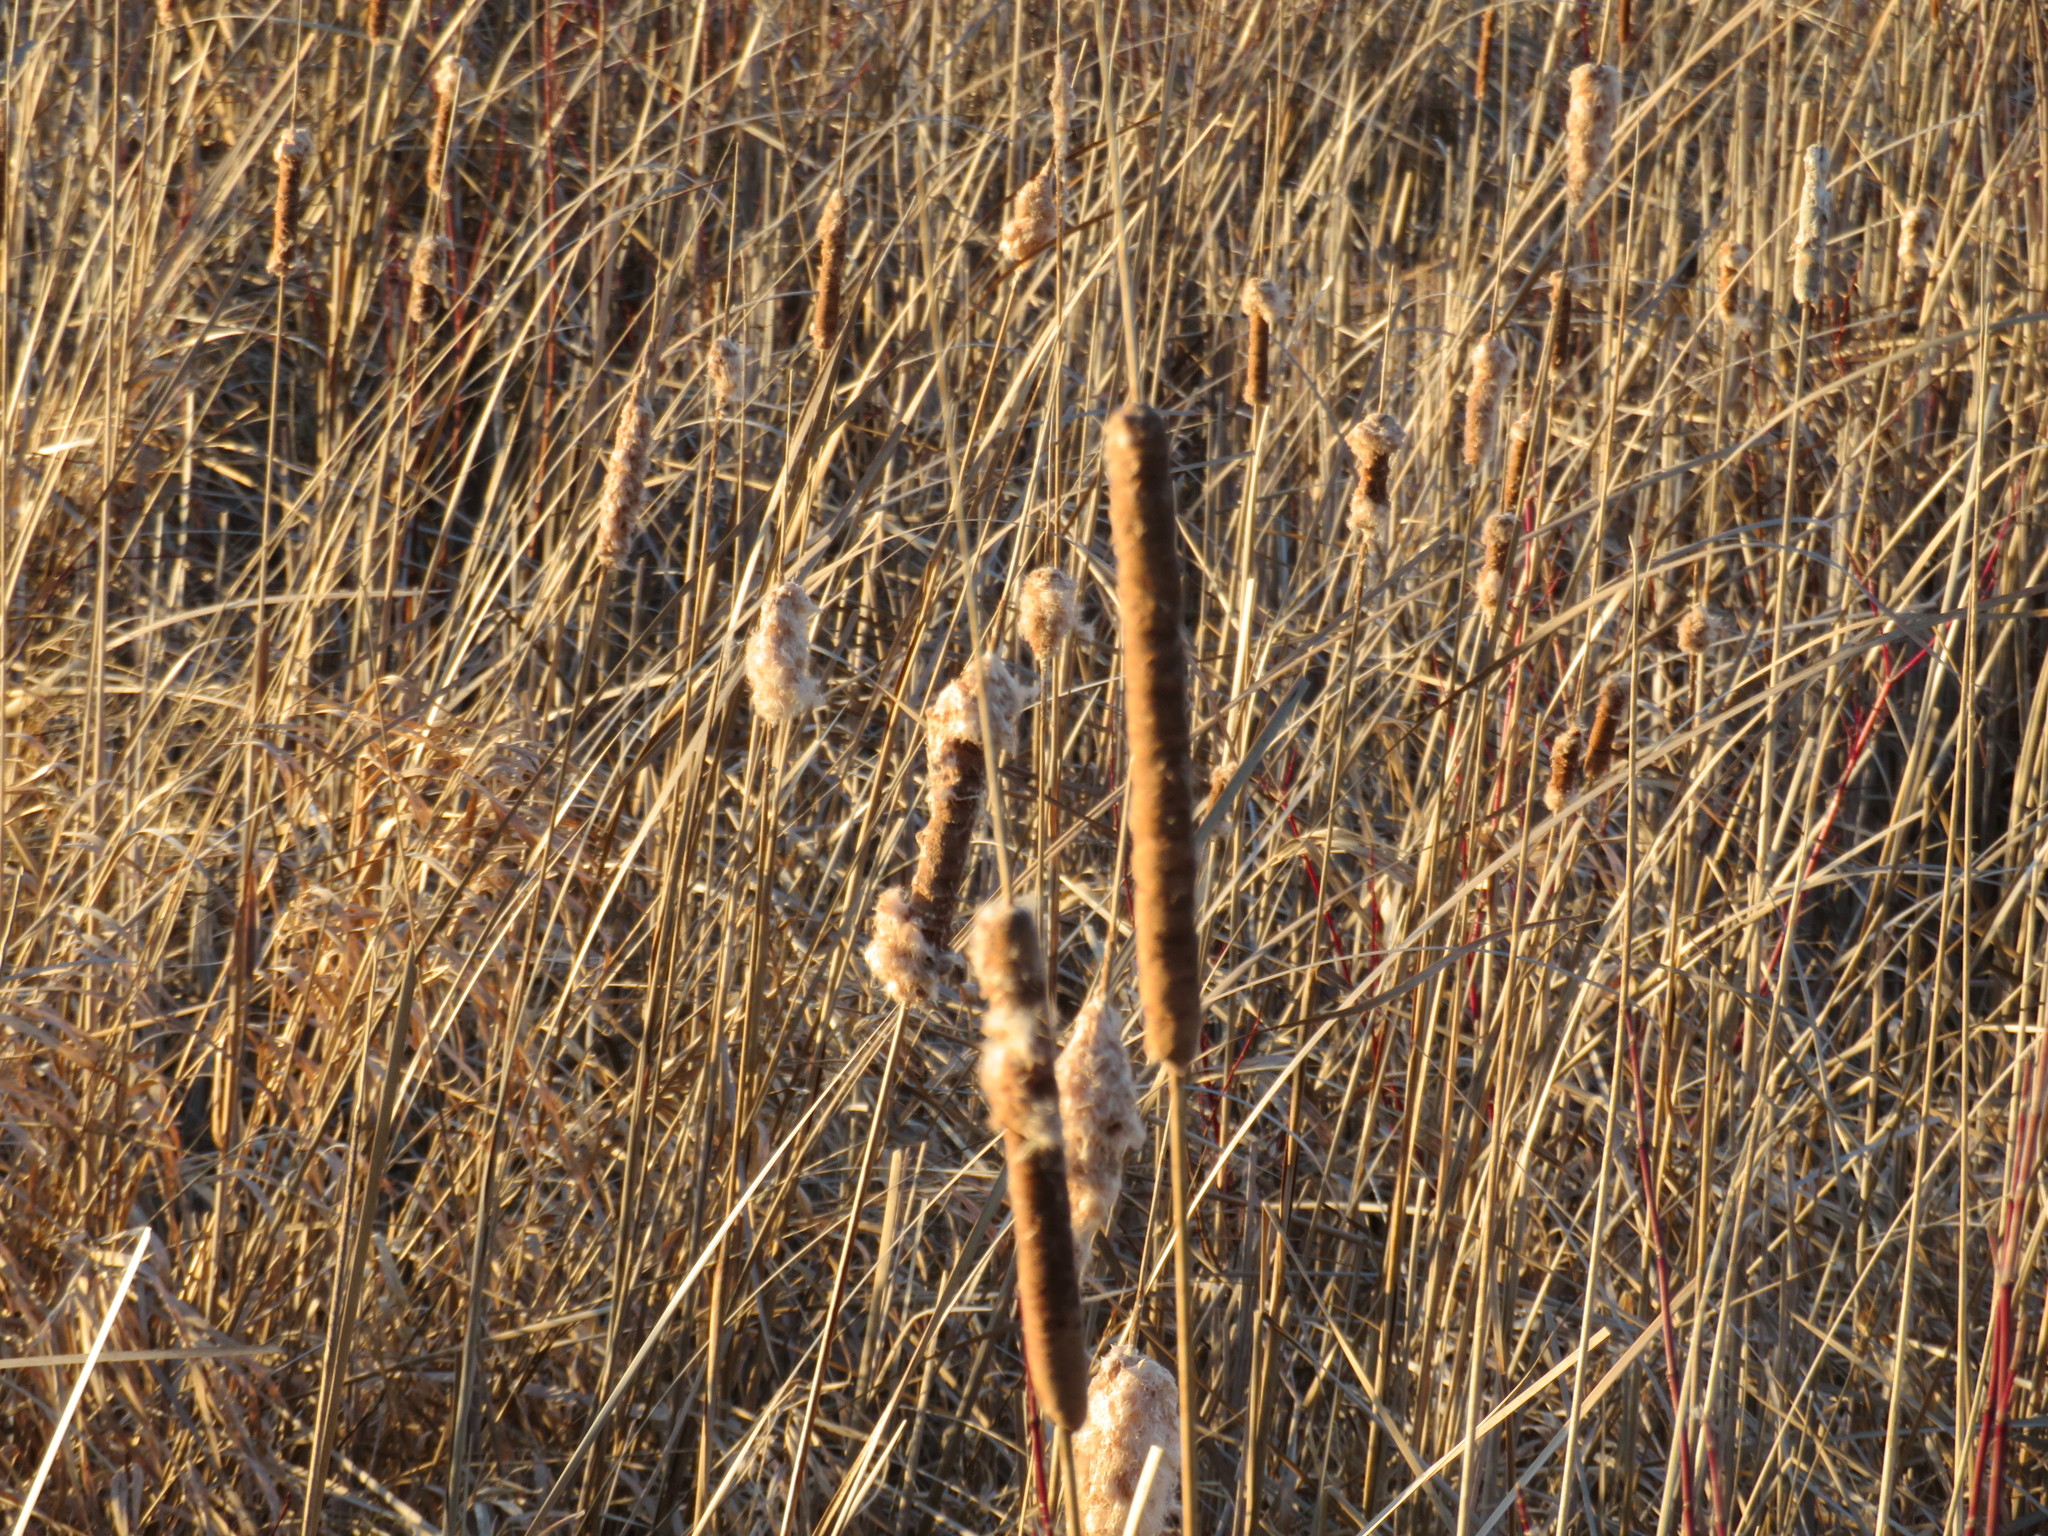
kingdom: Plantae
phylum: Tracheophyta
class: Liliopsida
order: Poales
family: Typhaceae
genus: Typha
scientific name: Typha angustifolia
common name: Lesser bulrush
